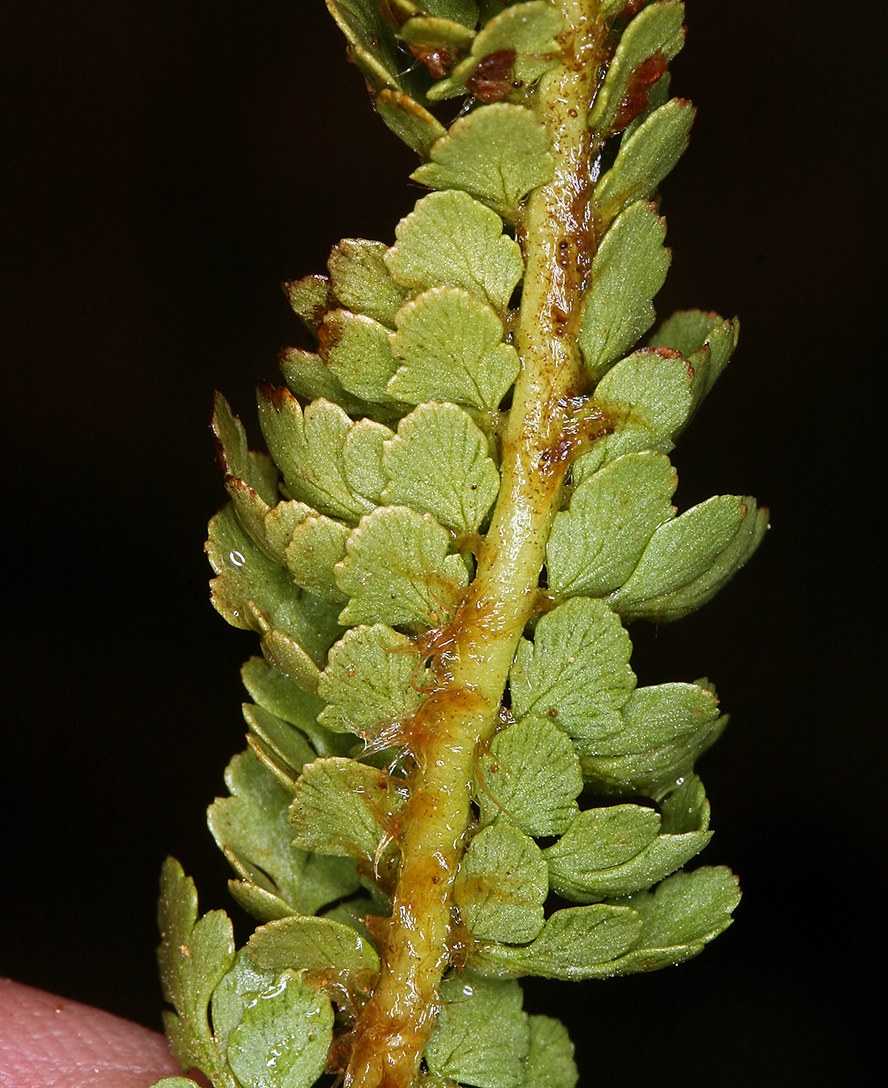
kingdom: Plantae
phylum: Tracheophyta
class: Polypodiopsida
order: Polypodiales
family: Dryopteridaceae
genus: Polystichum
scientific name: Polystichum lemmonii
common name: Lemmon's holly fern
